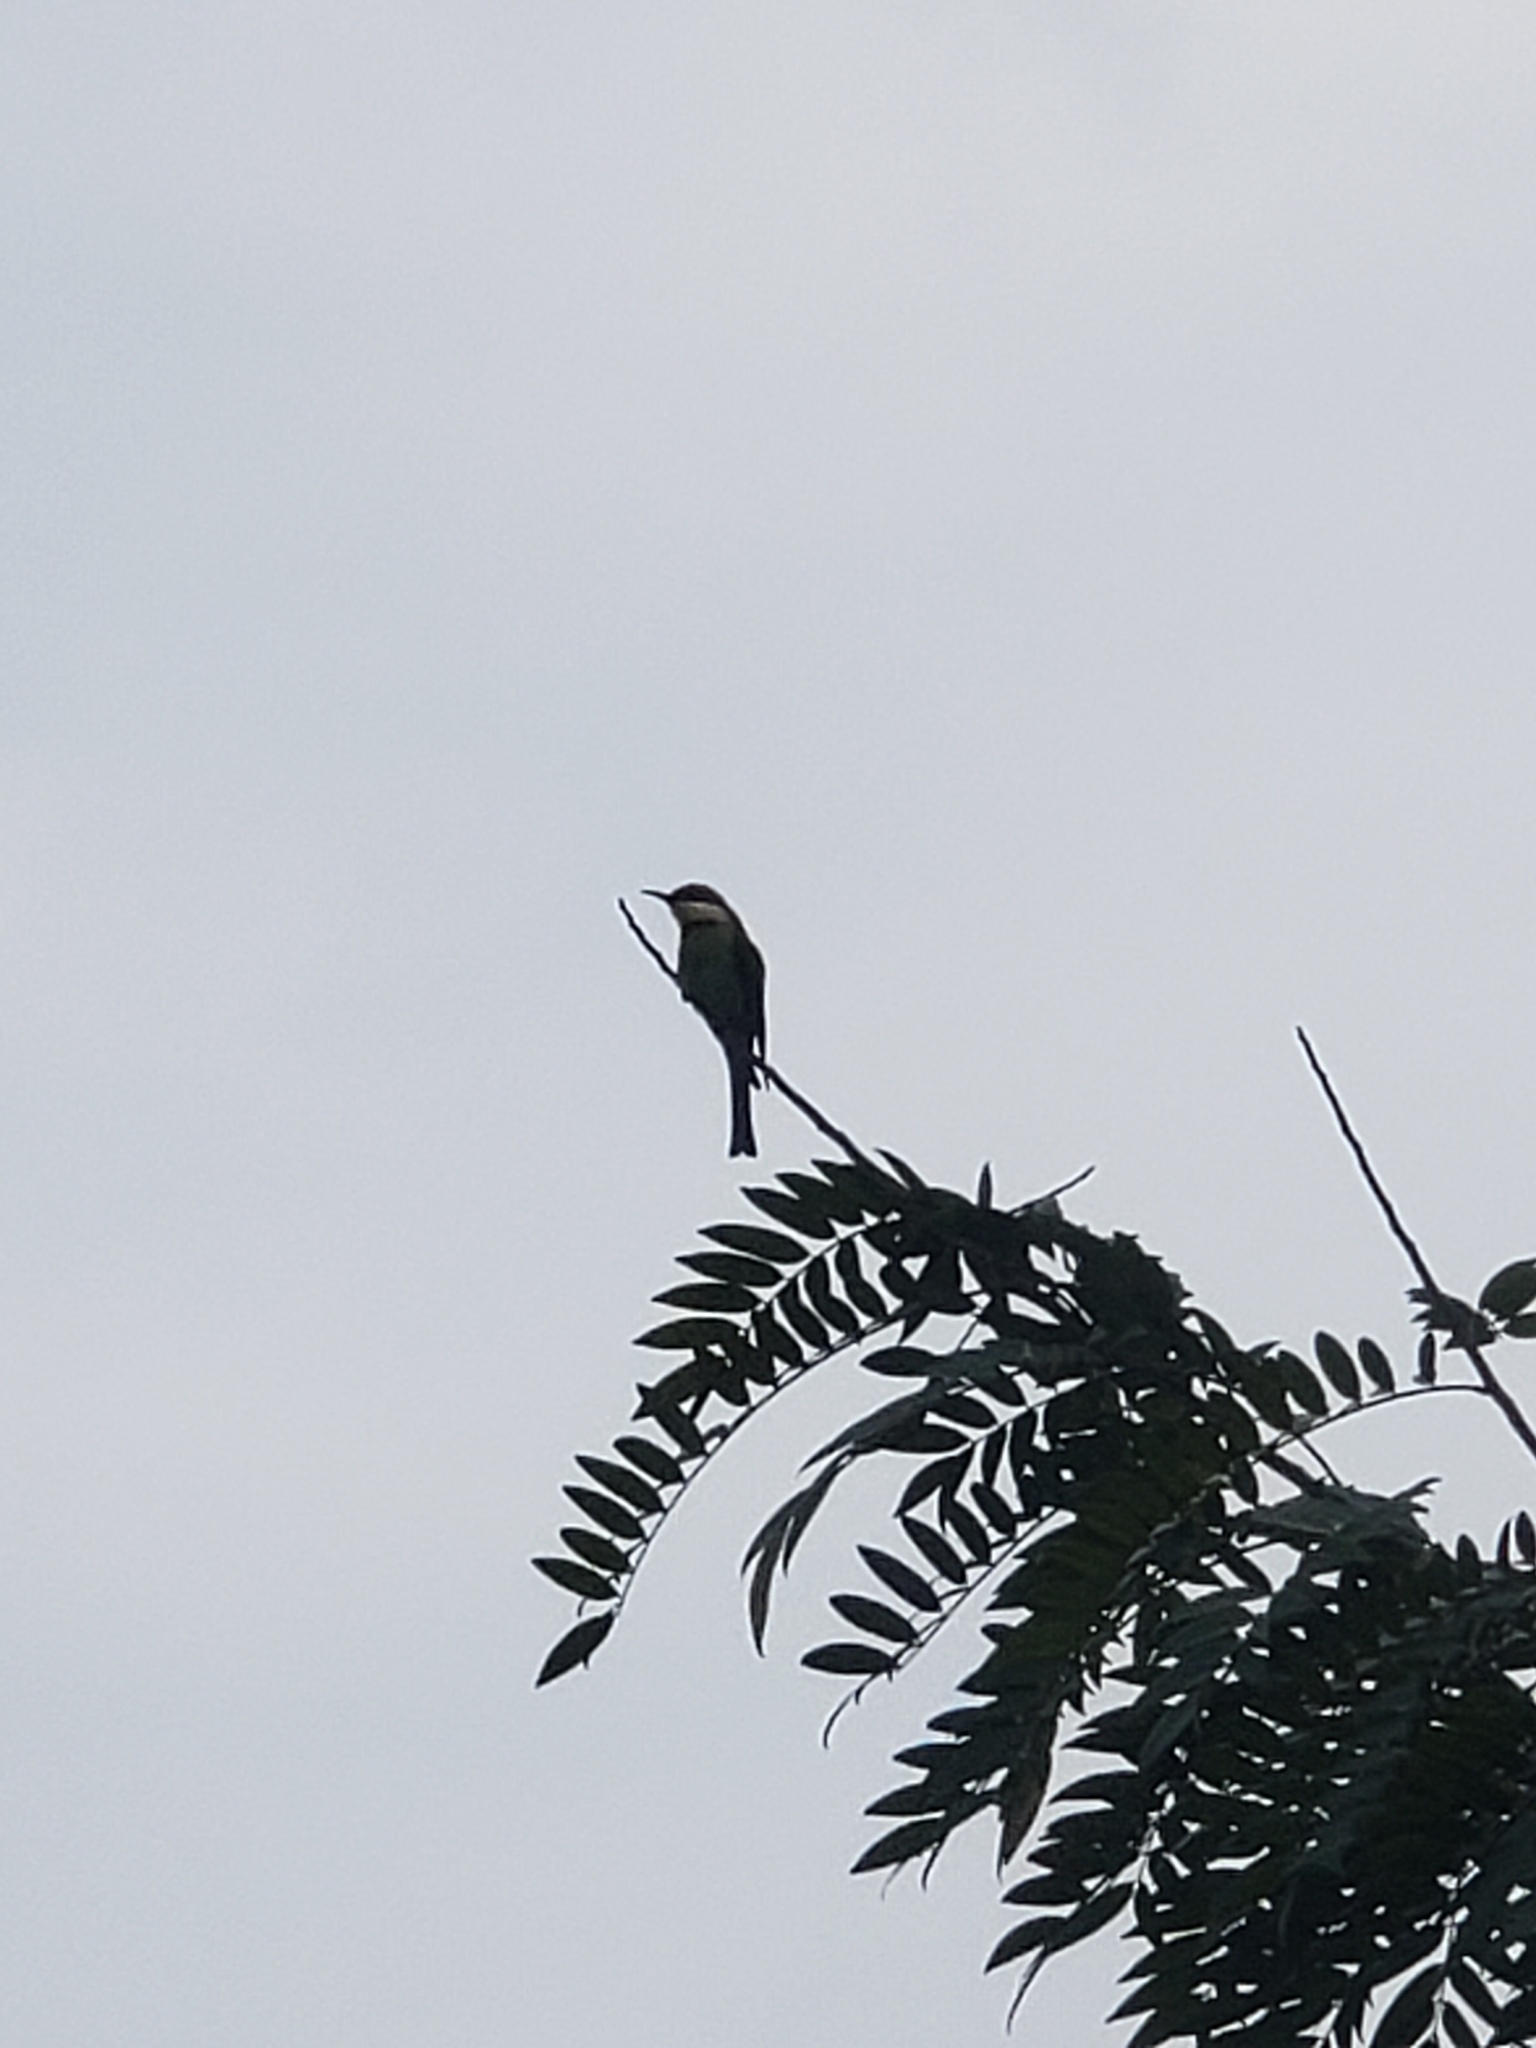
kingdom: Animalia
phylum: Chordata
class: Aves
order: Coraciiformes
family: Meropidae
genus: Merops
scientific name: Merops leschenaulti
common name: Chestnut-headed bee-eater
